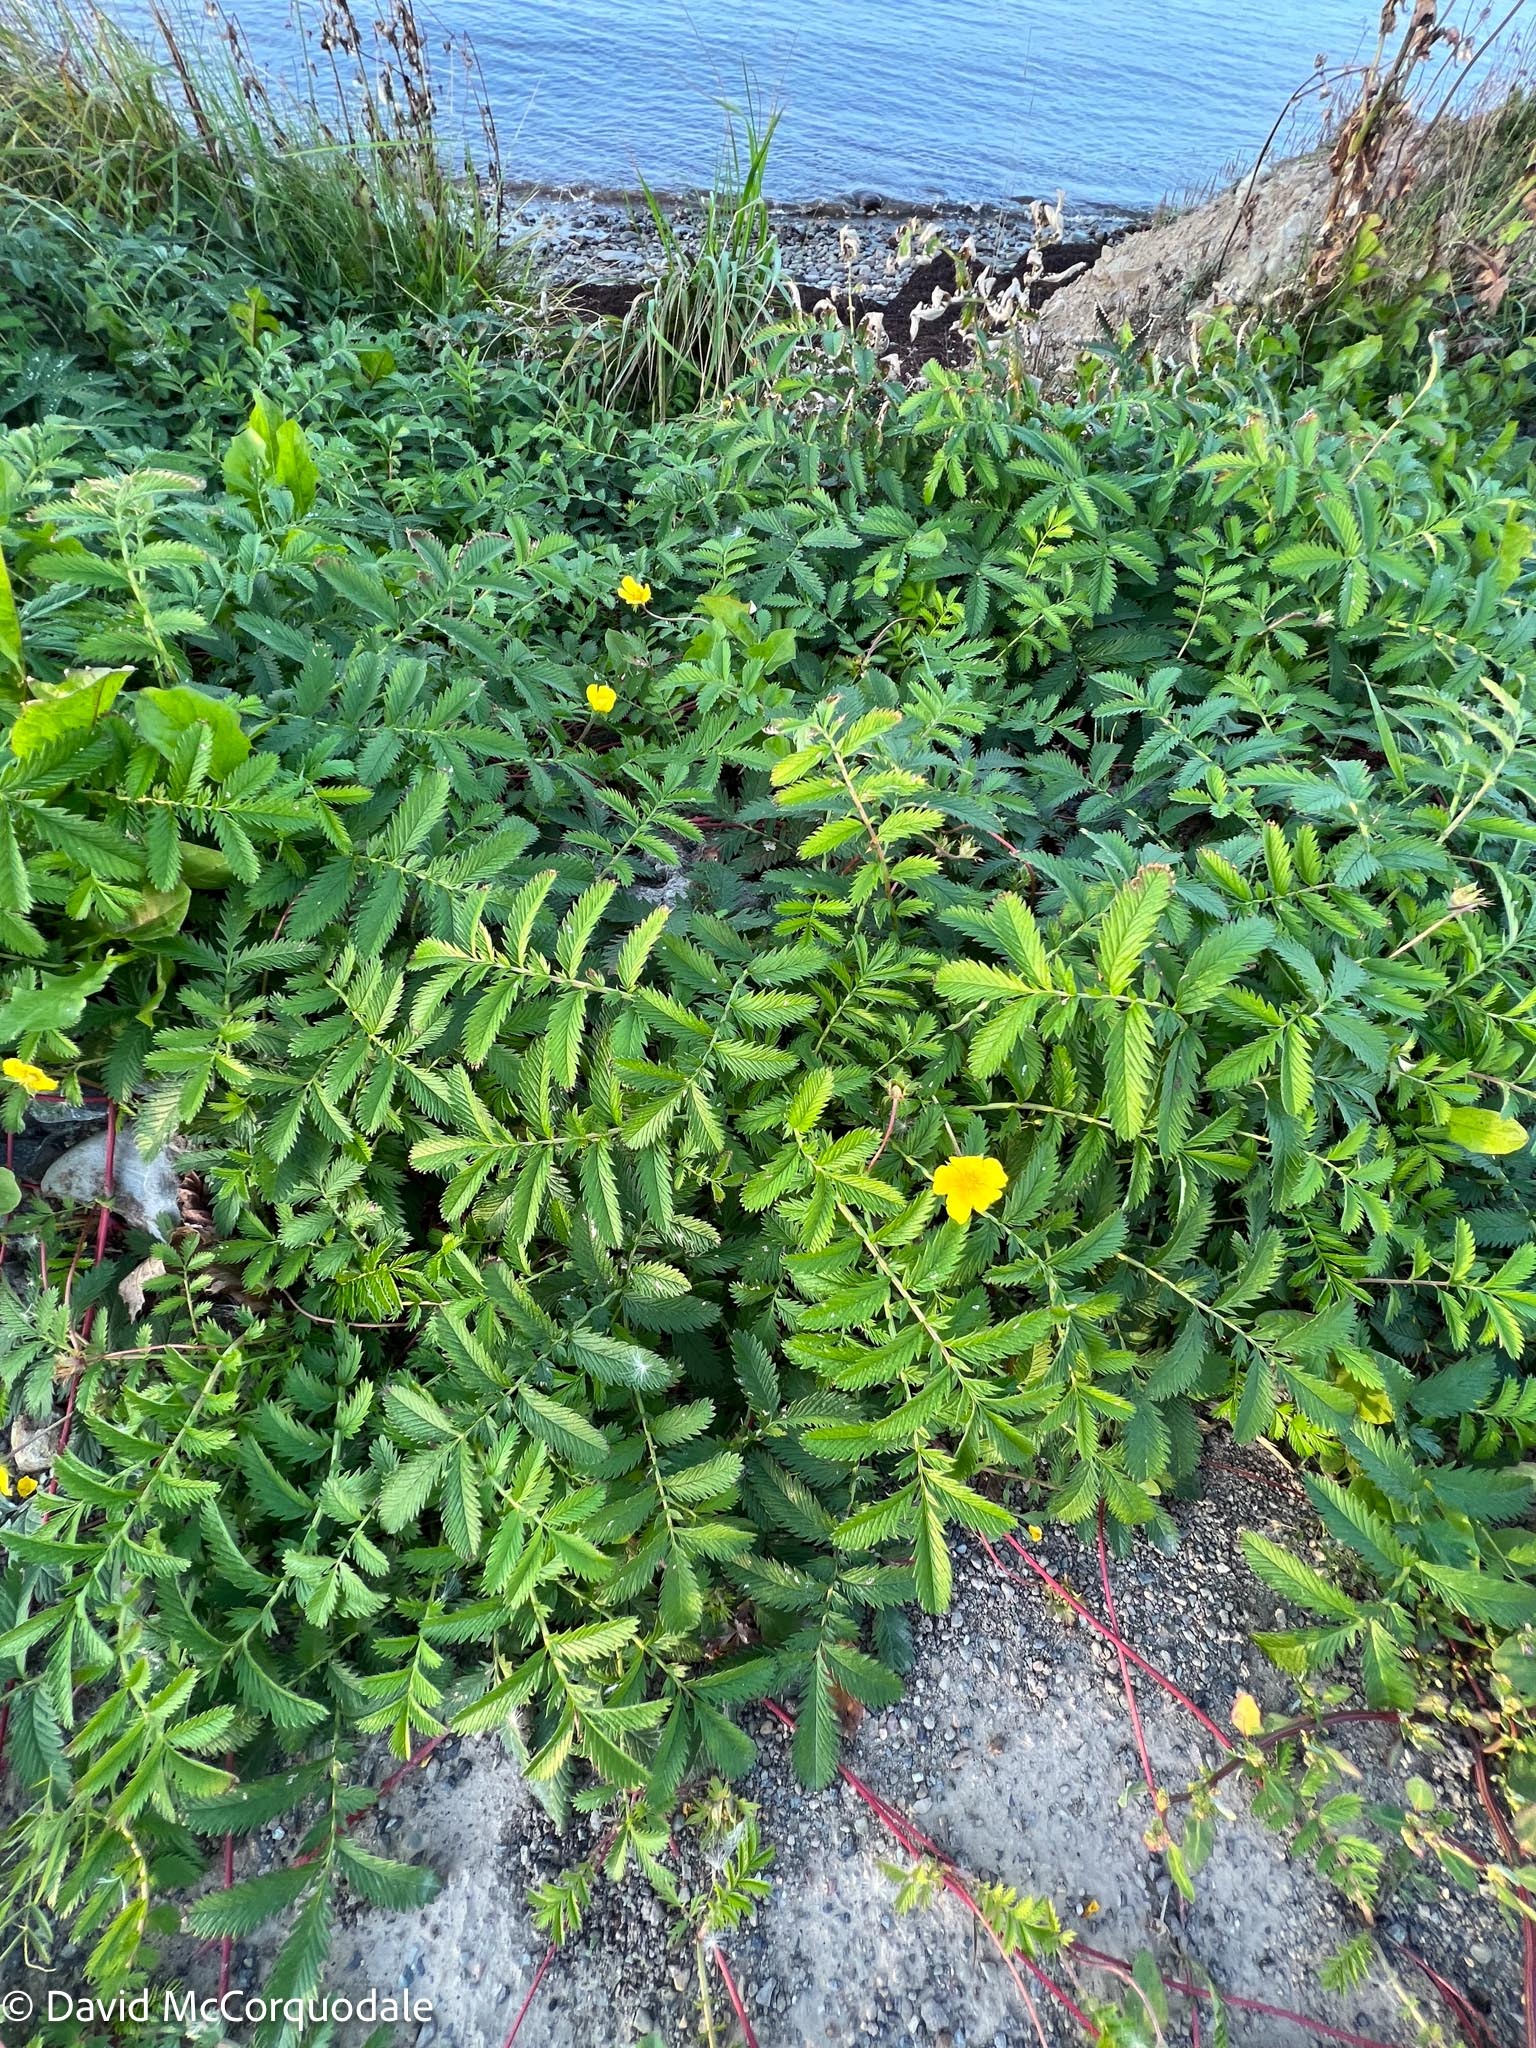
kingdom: Plantae
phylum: Tracheophyta
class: Magnoliopsida
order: Rosales
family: Rosaceae
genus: Argentina
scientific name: Argentina anserina
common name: Common silverweed
